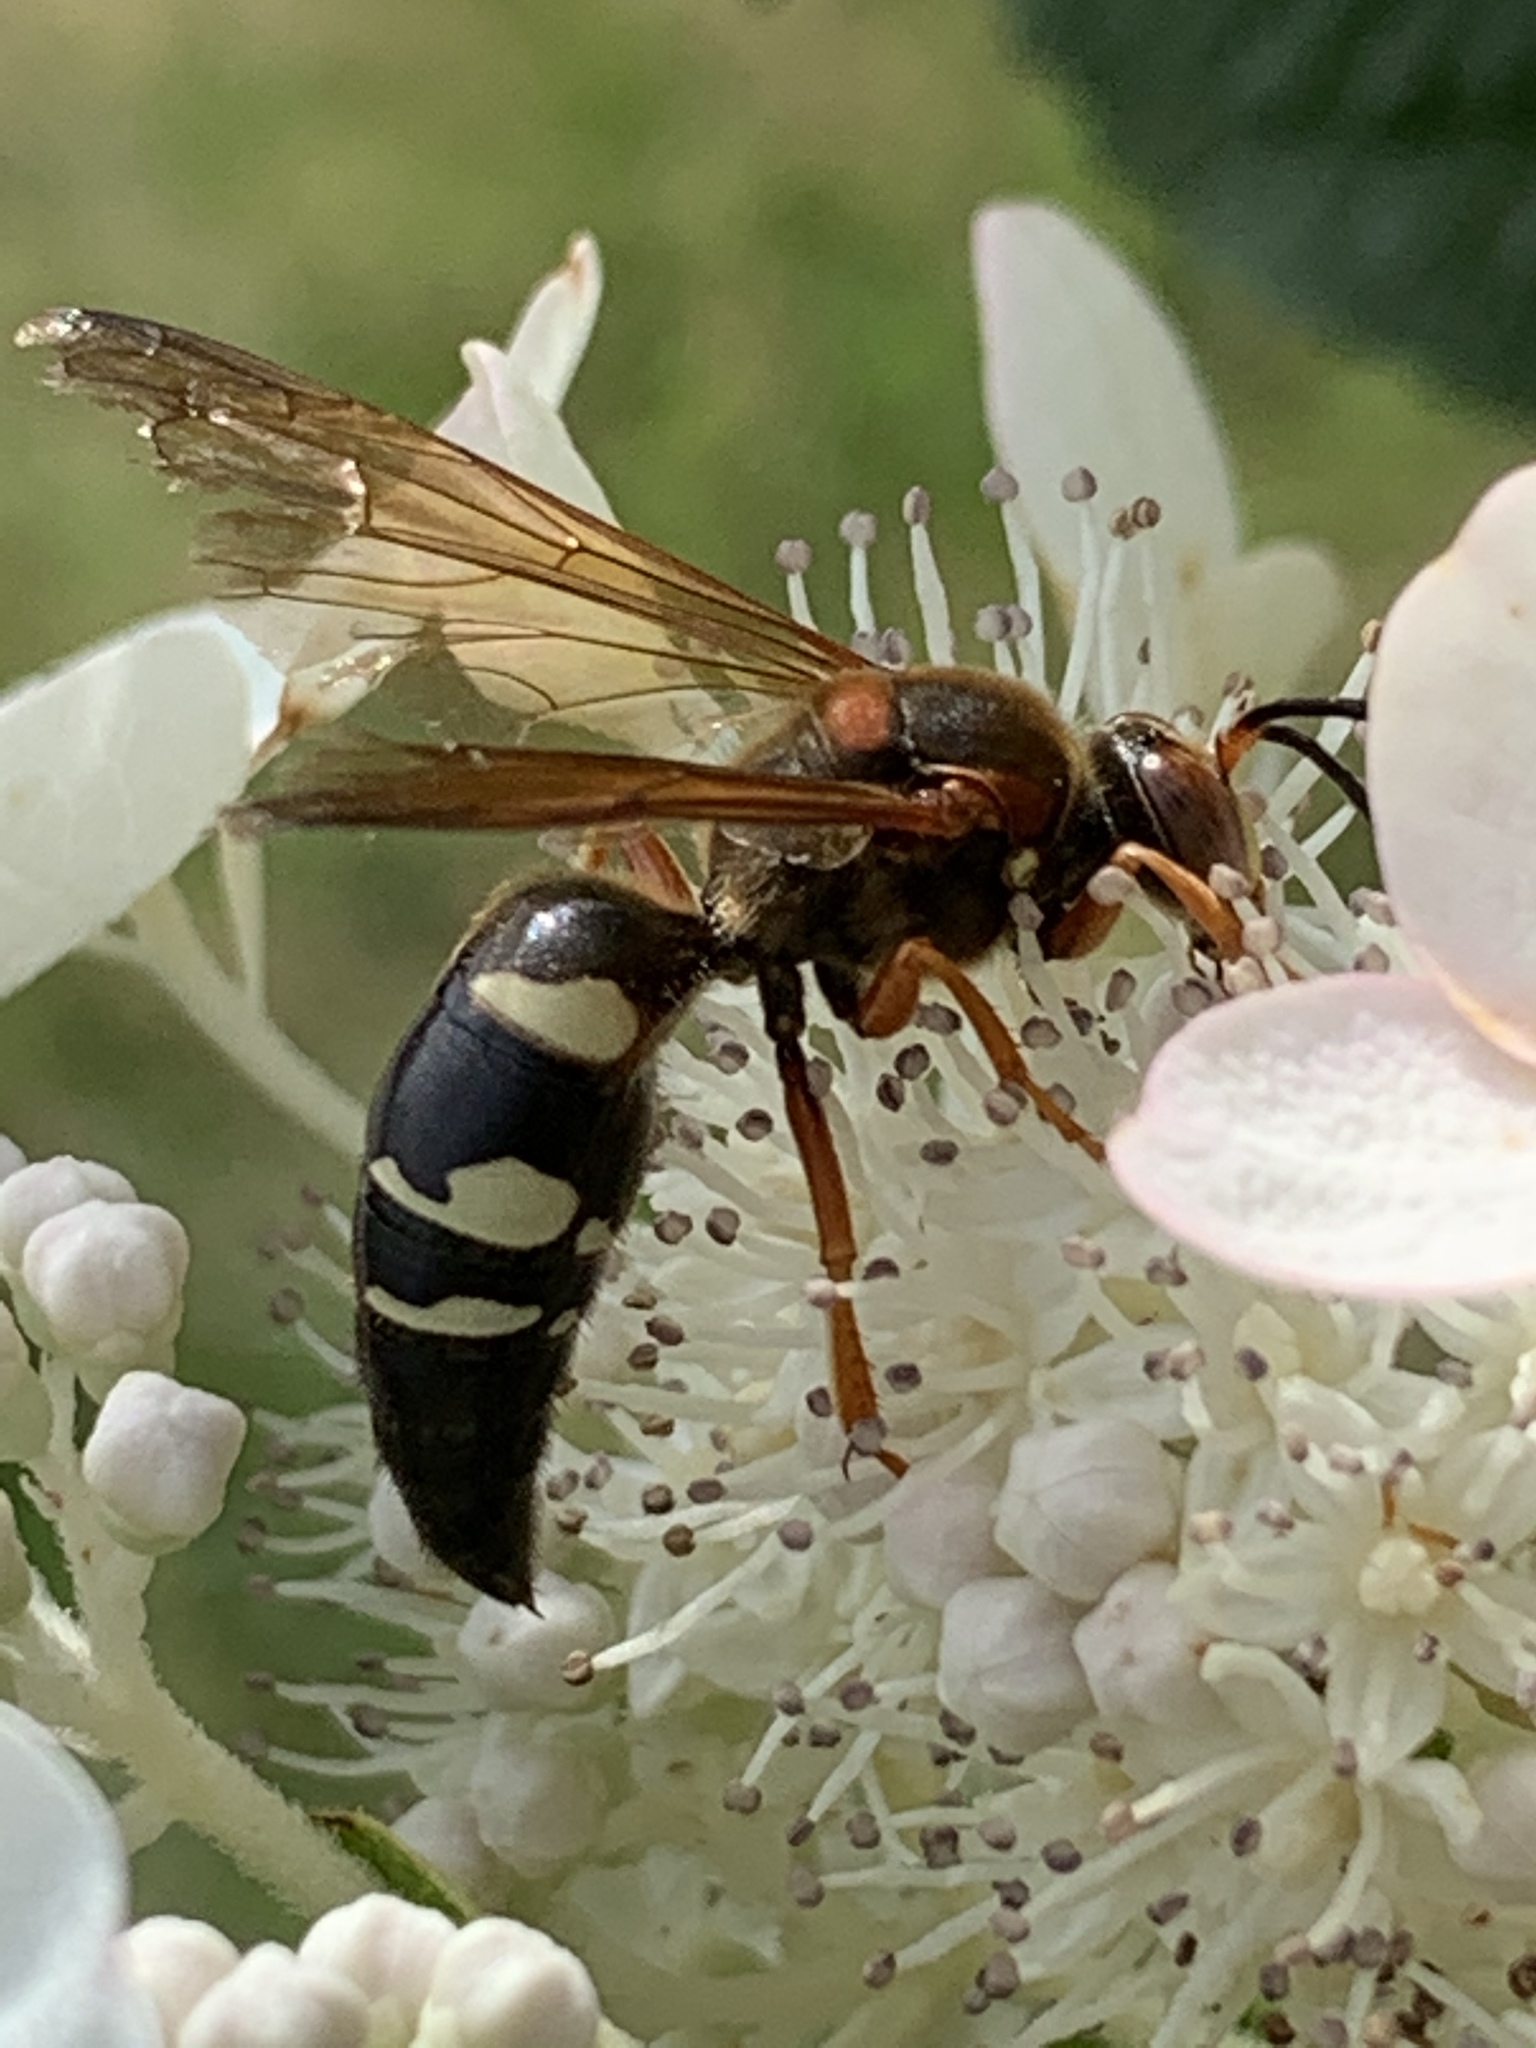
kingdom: Animalia
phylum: Arthropoda
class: Insecta
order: Hymenoptera
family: Crabronidae
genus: Sphecius
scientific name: Sphecius speciosus
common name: Cicada killer
